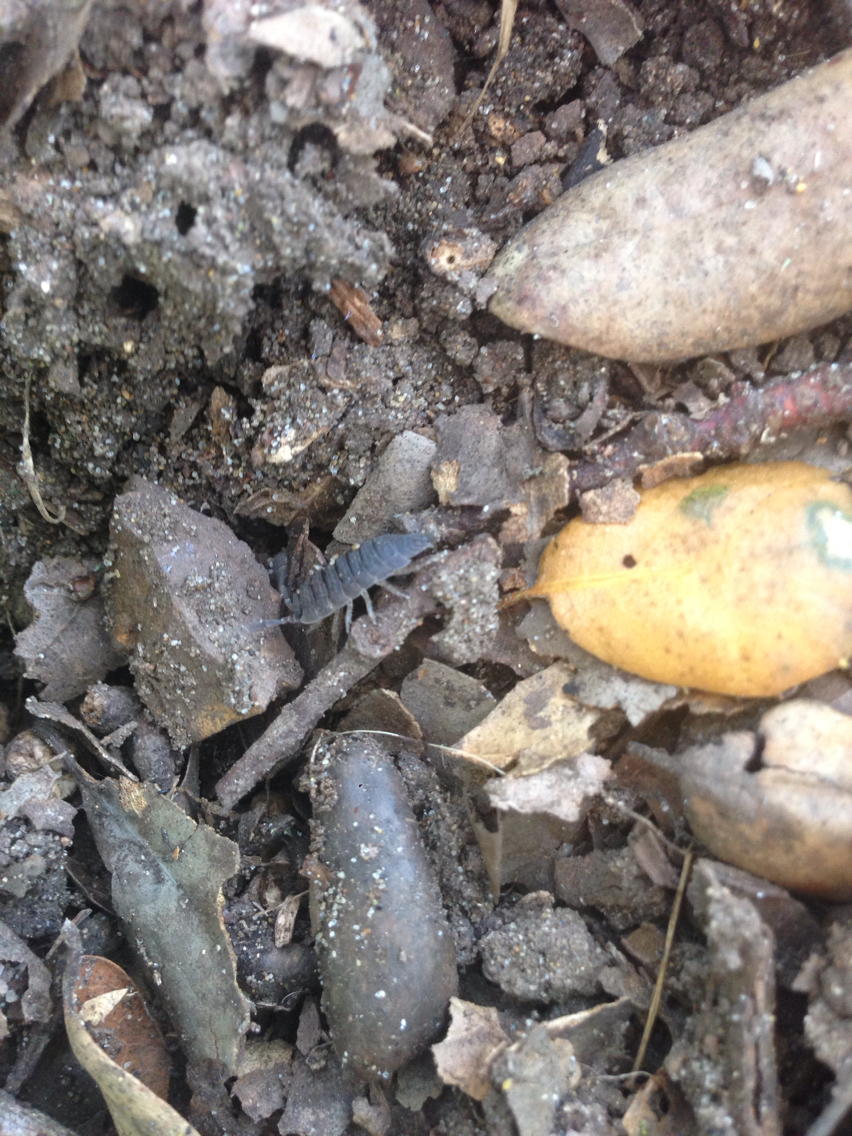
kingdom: Animalia
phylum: Arthropoda
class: Malacostraca
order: Isopoda
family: Porcellionidae
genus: Porcellio
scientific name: Porcellio scaber
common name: Common rough woodlouse
